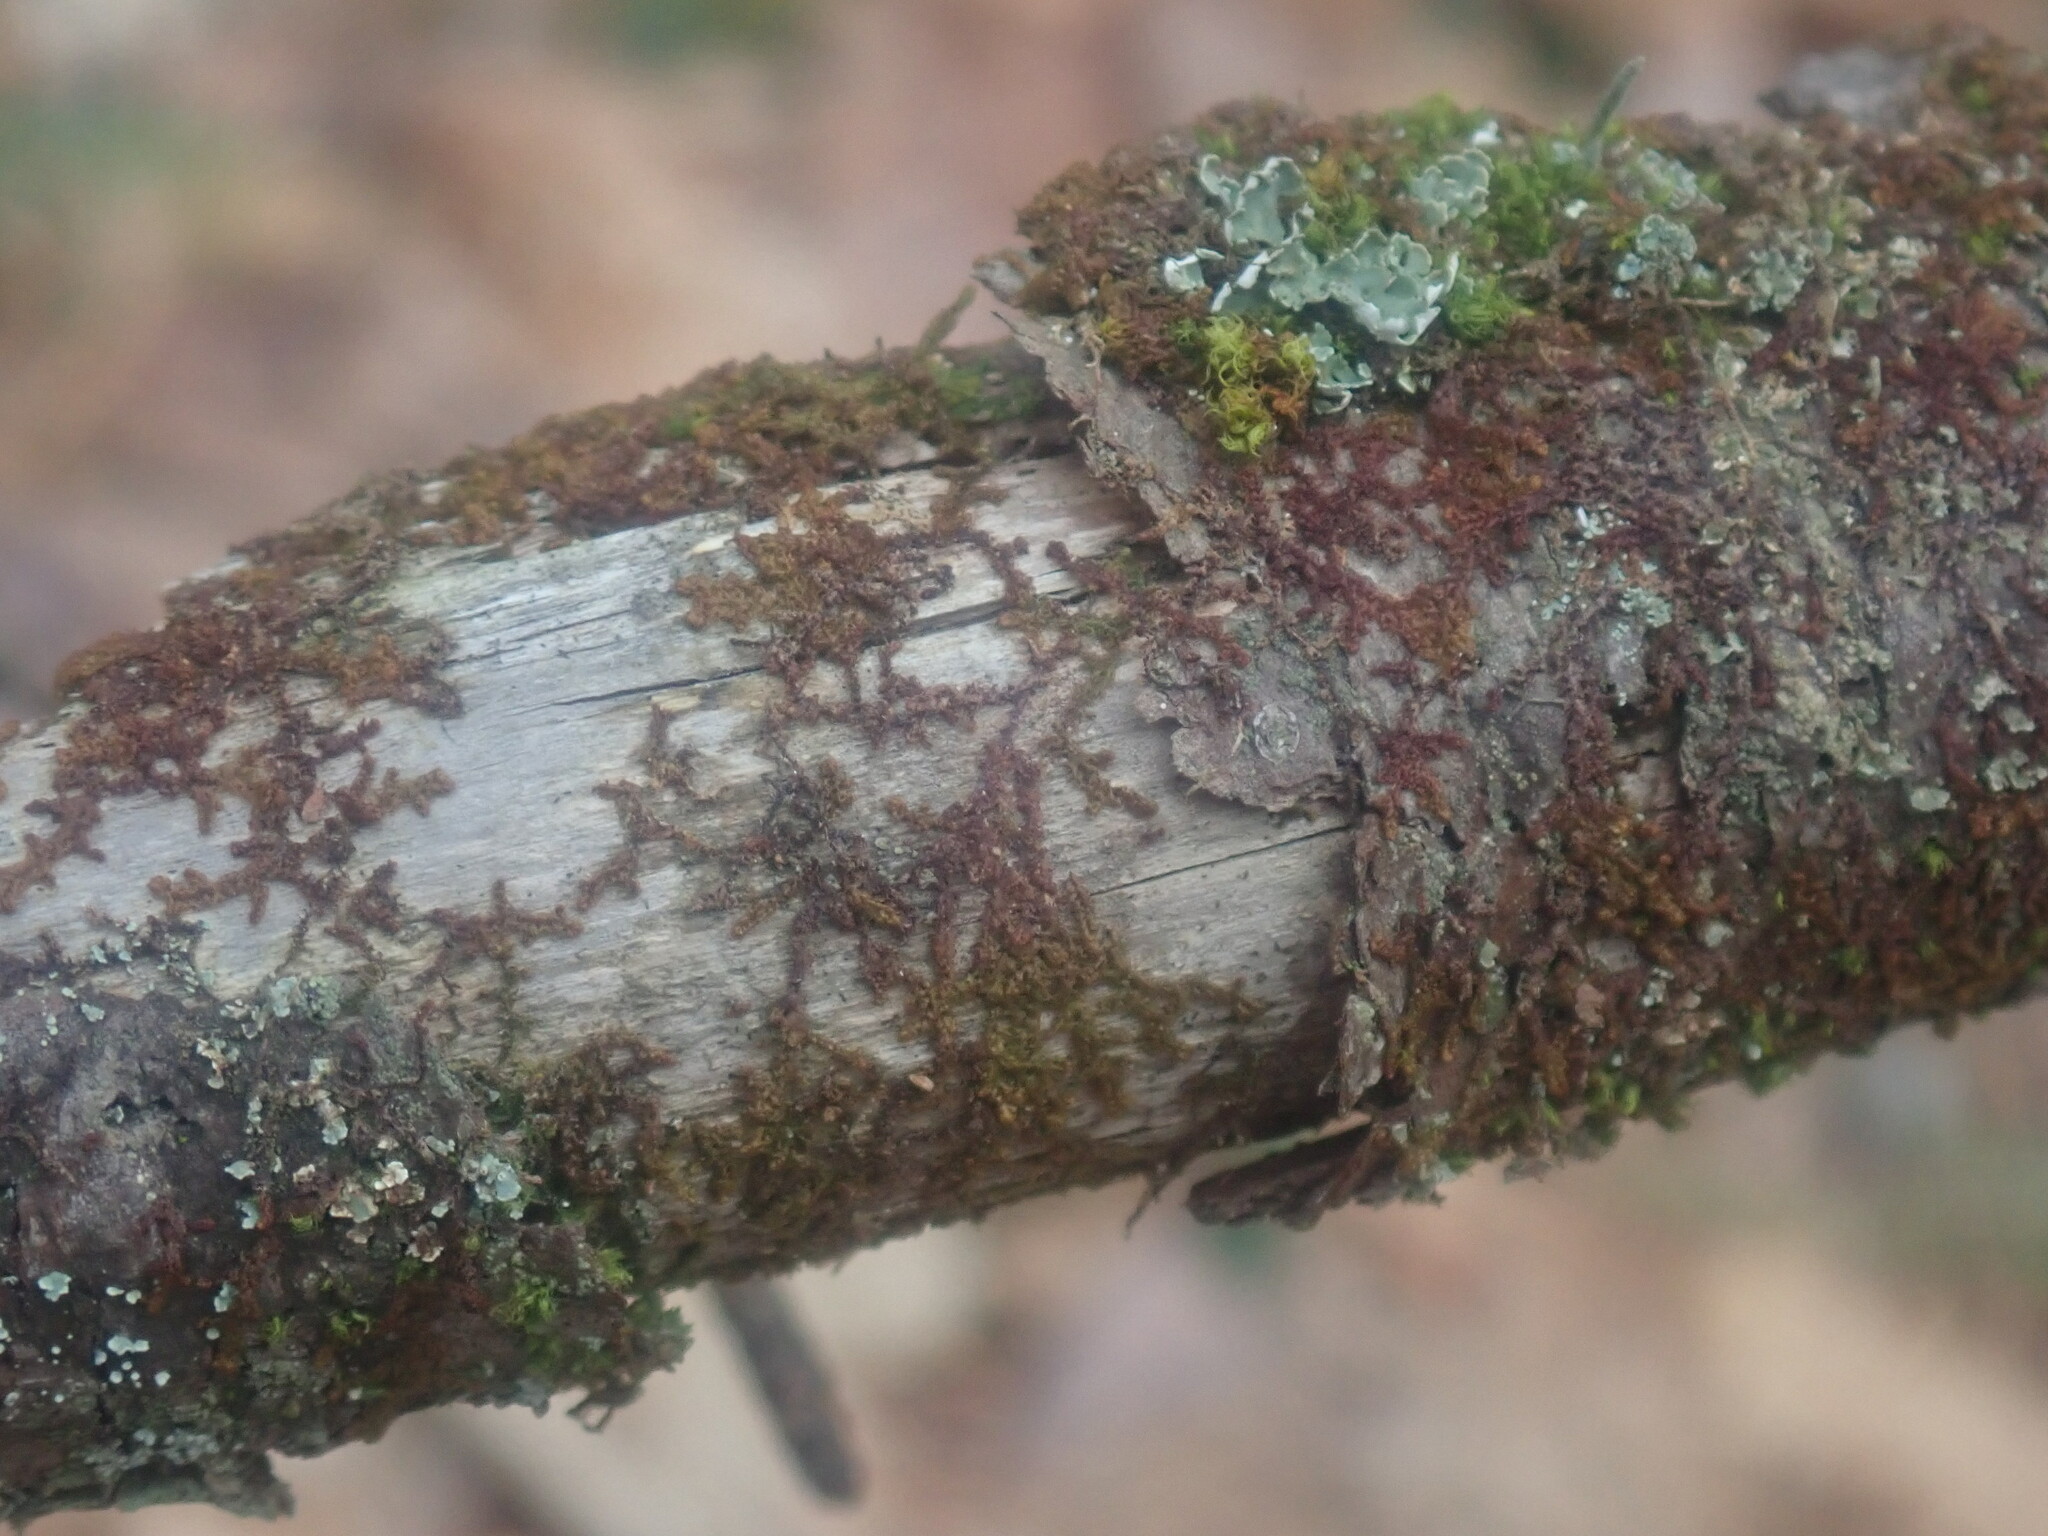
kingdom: Plantae
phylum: Marchantiophyta
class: Jungermanniopsida
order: Ptilidiales
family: Ptilidiaceae
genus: Ptilidium
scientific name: Ptilidium pulcherrimum
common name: Tree fringewort
